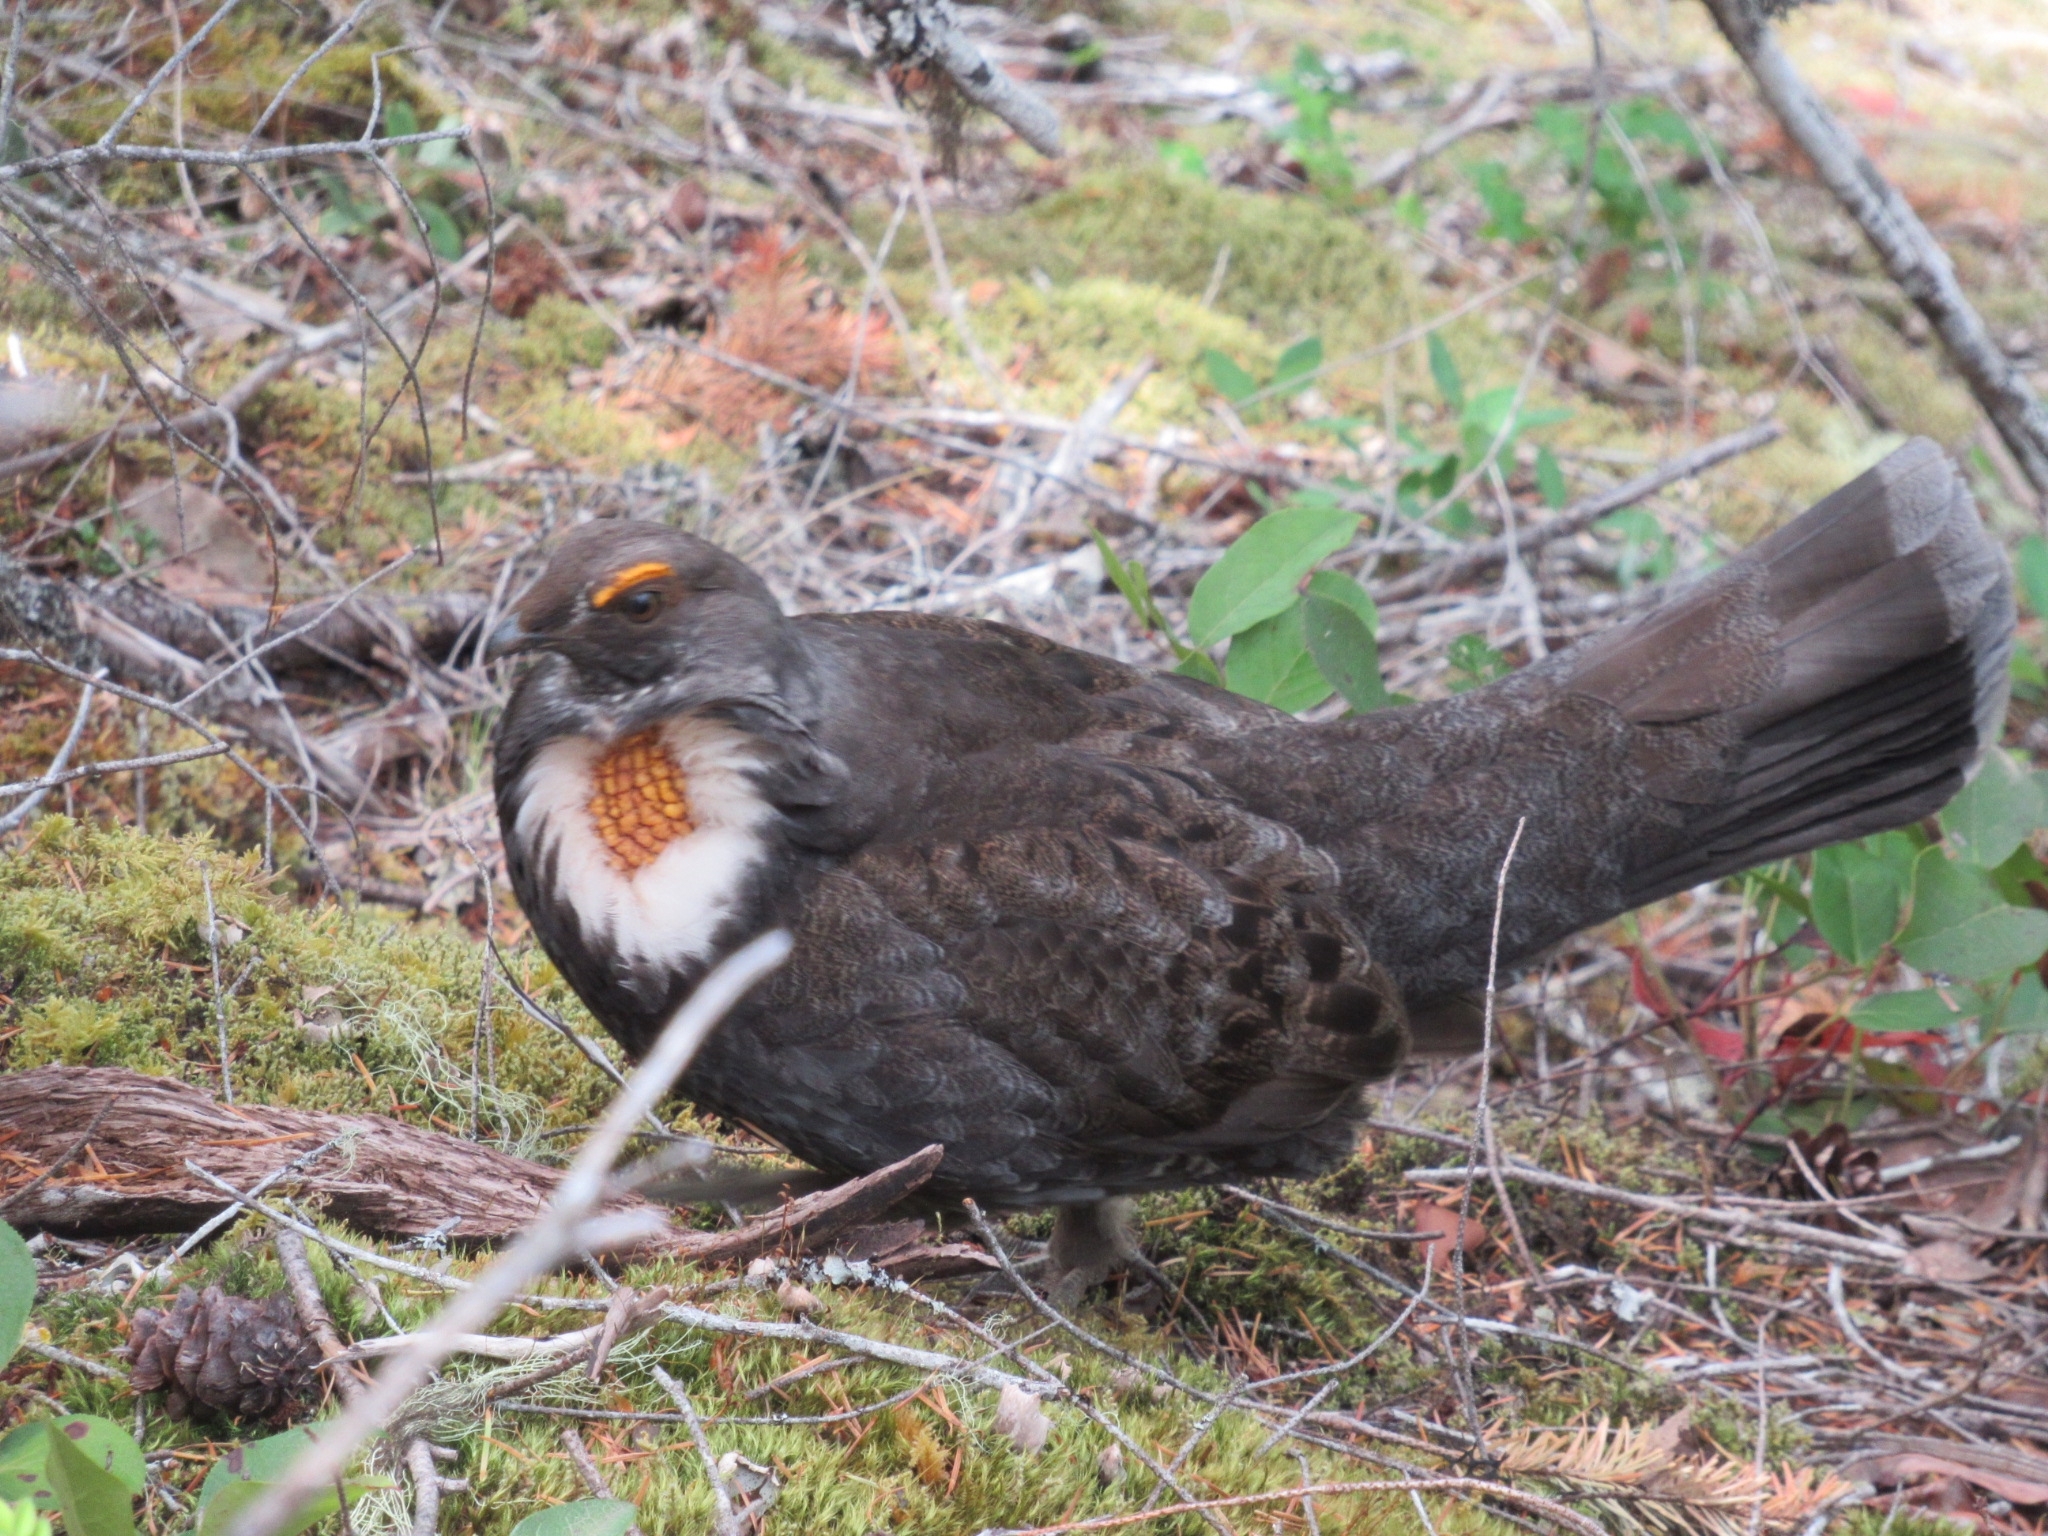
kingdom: Animalia
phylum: Chordata
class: Aves
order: Galliformes
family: Phasianidae
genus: Dendragapus
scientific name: Dendragapus fuliginosus
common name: Sooty grouse
